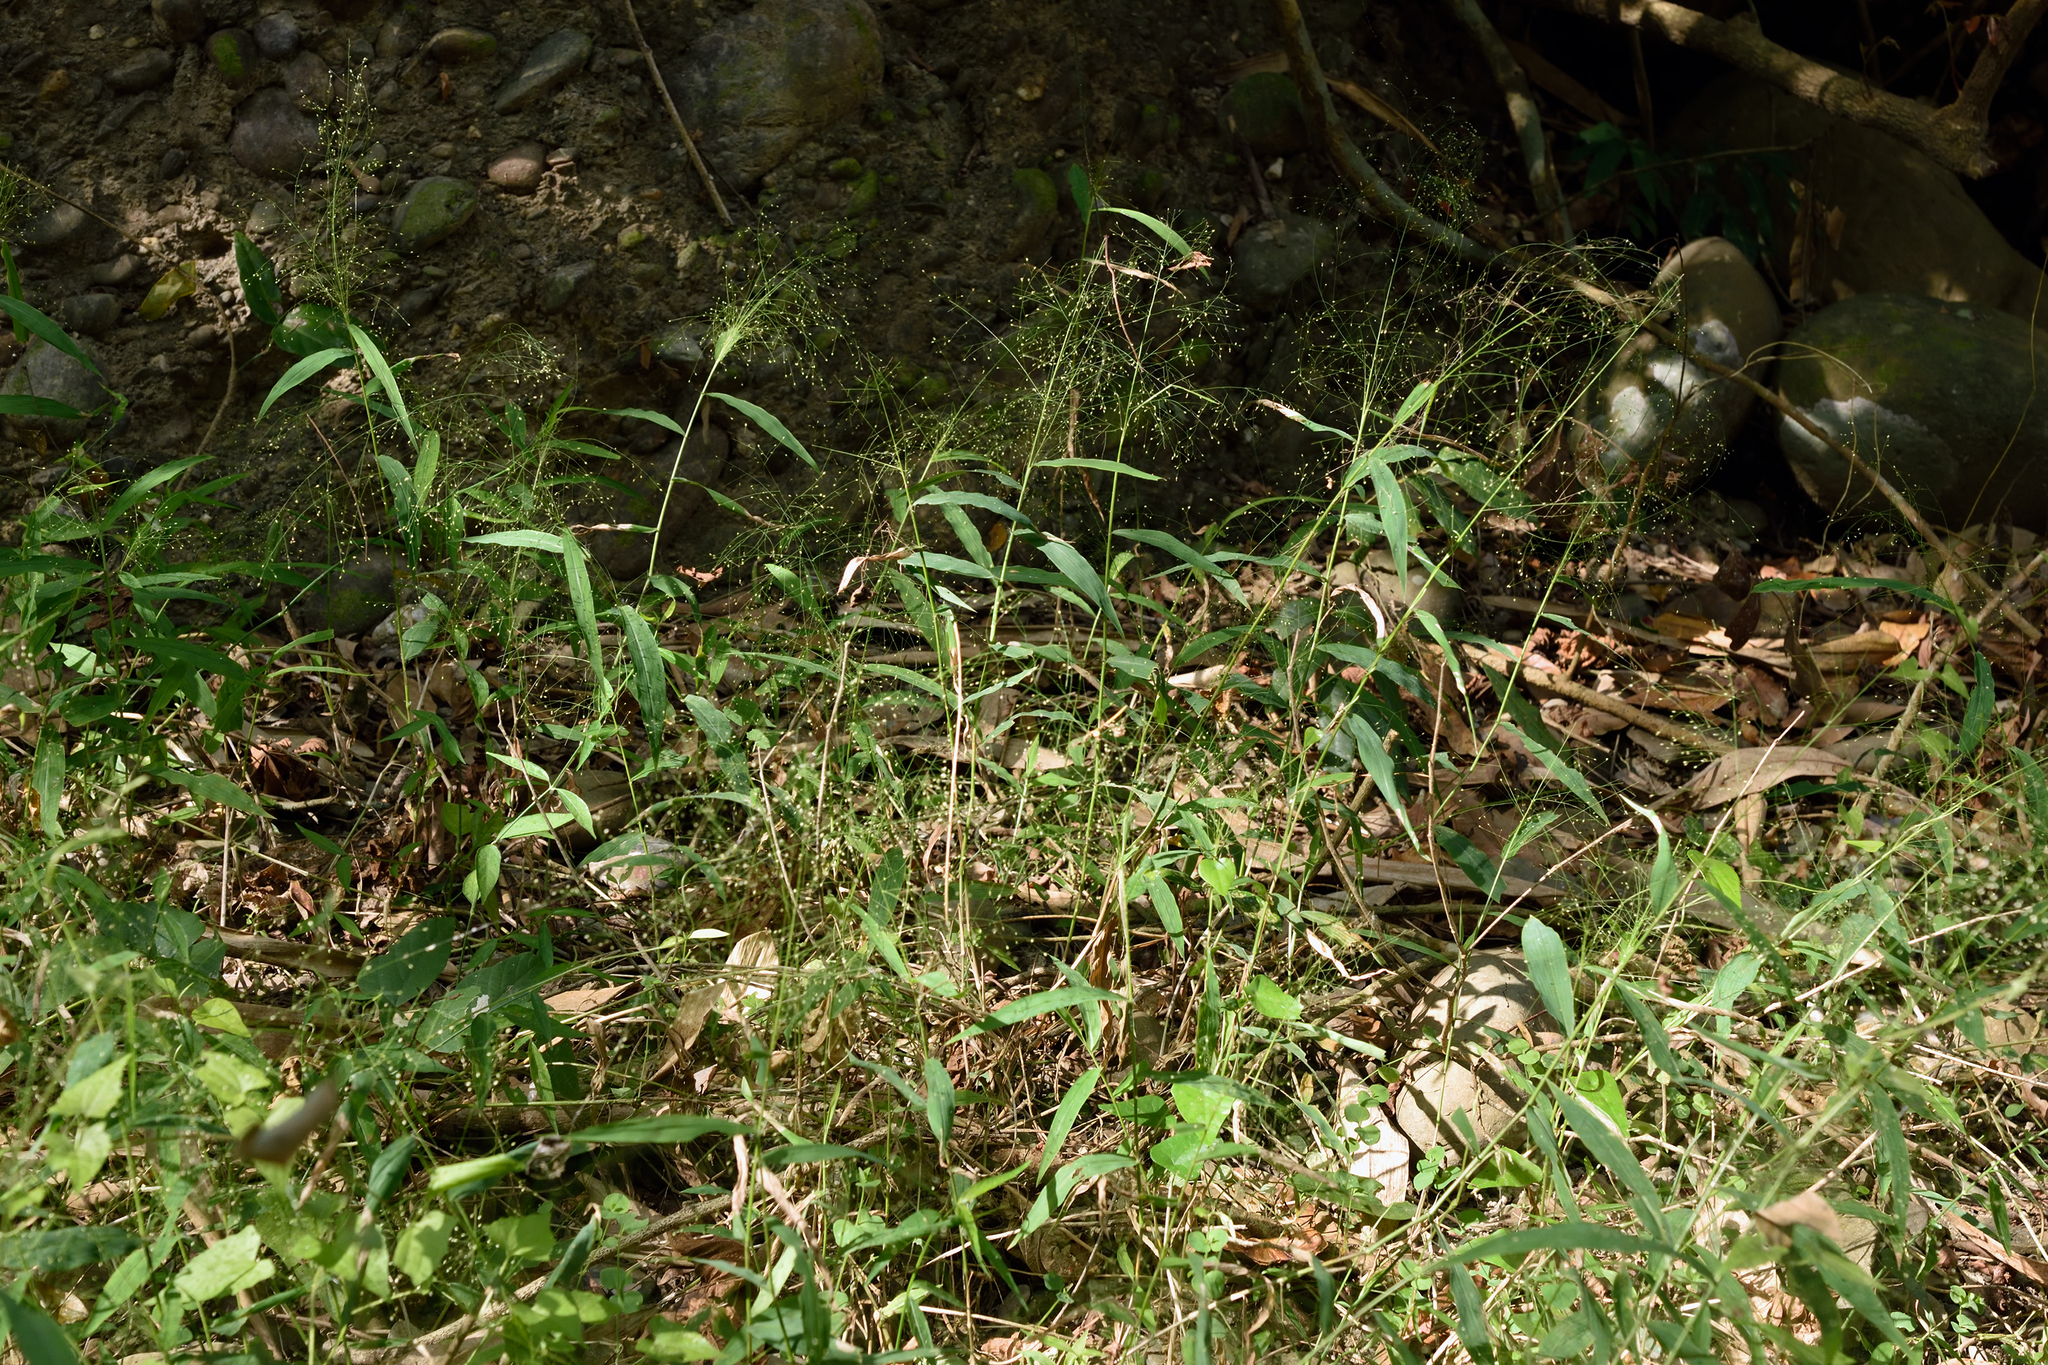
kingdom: Plantae
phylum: Tracheophyta
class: Liliopsida
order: Poales
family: Poaceae
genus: Cyrtococcum
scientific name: Cyrtococcum accrescens
